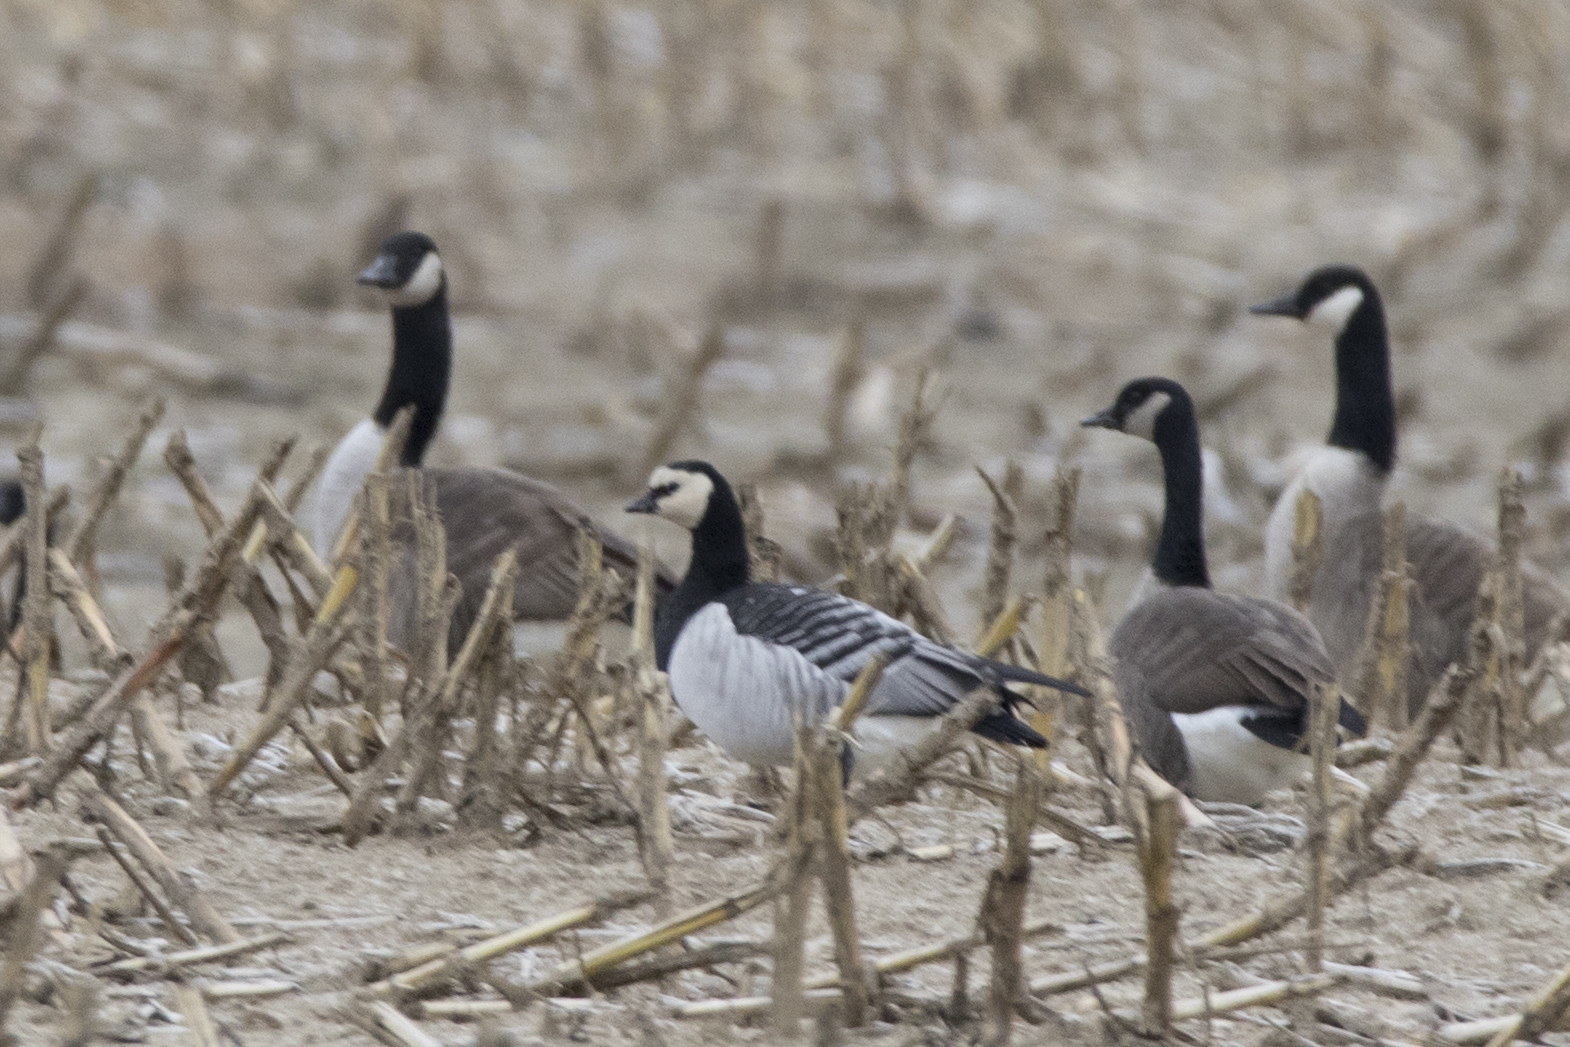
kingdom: Animalia
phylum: Chordata
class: Aves
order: Anseriformes
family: Anatidae
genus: Branta
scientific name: Branta leucopsis
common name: Barnacle goose
